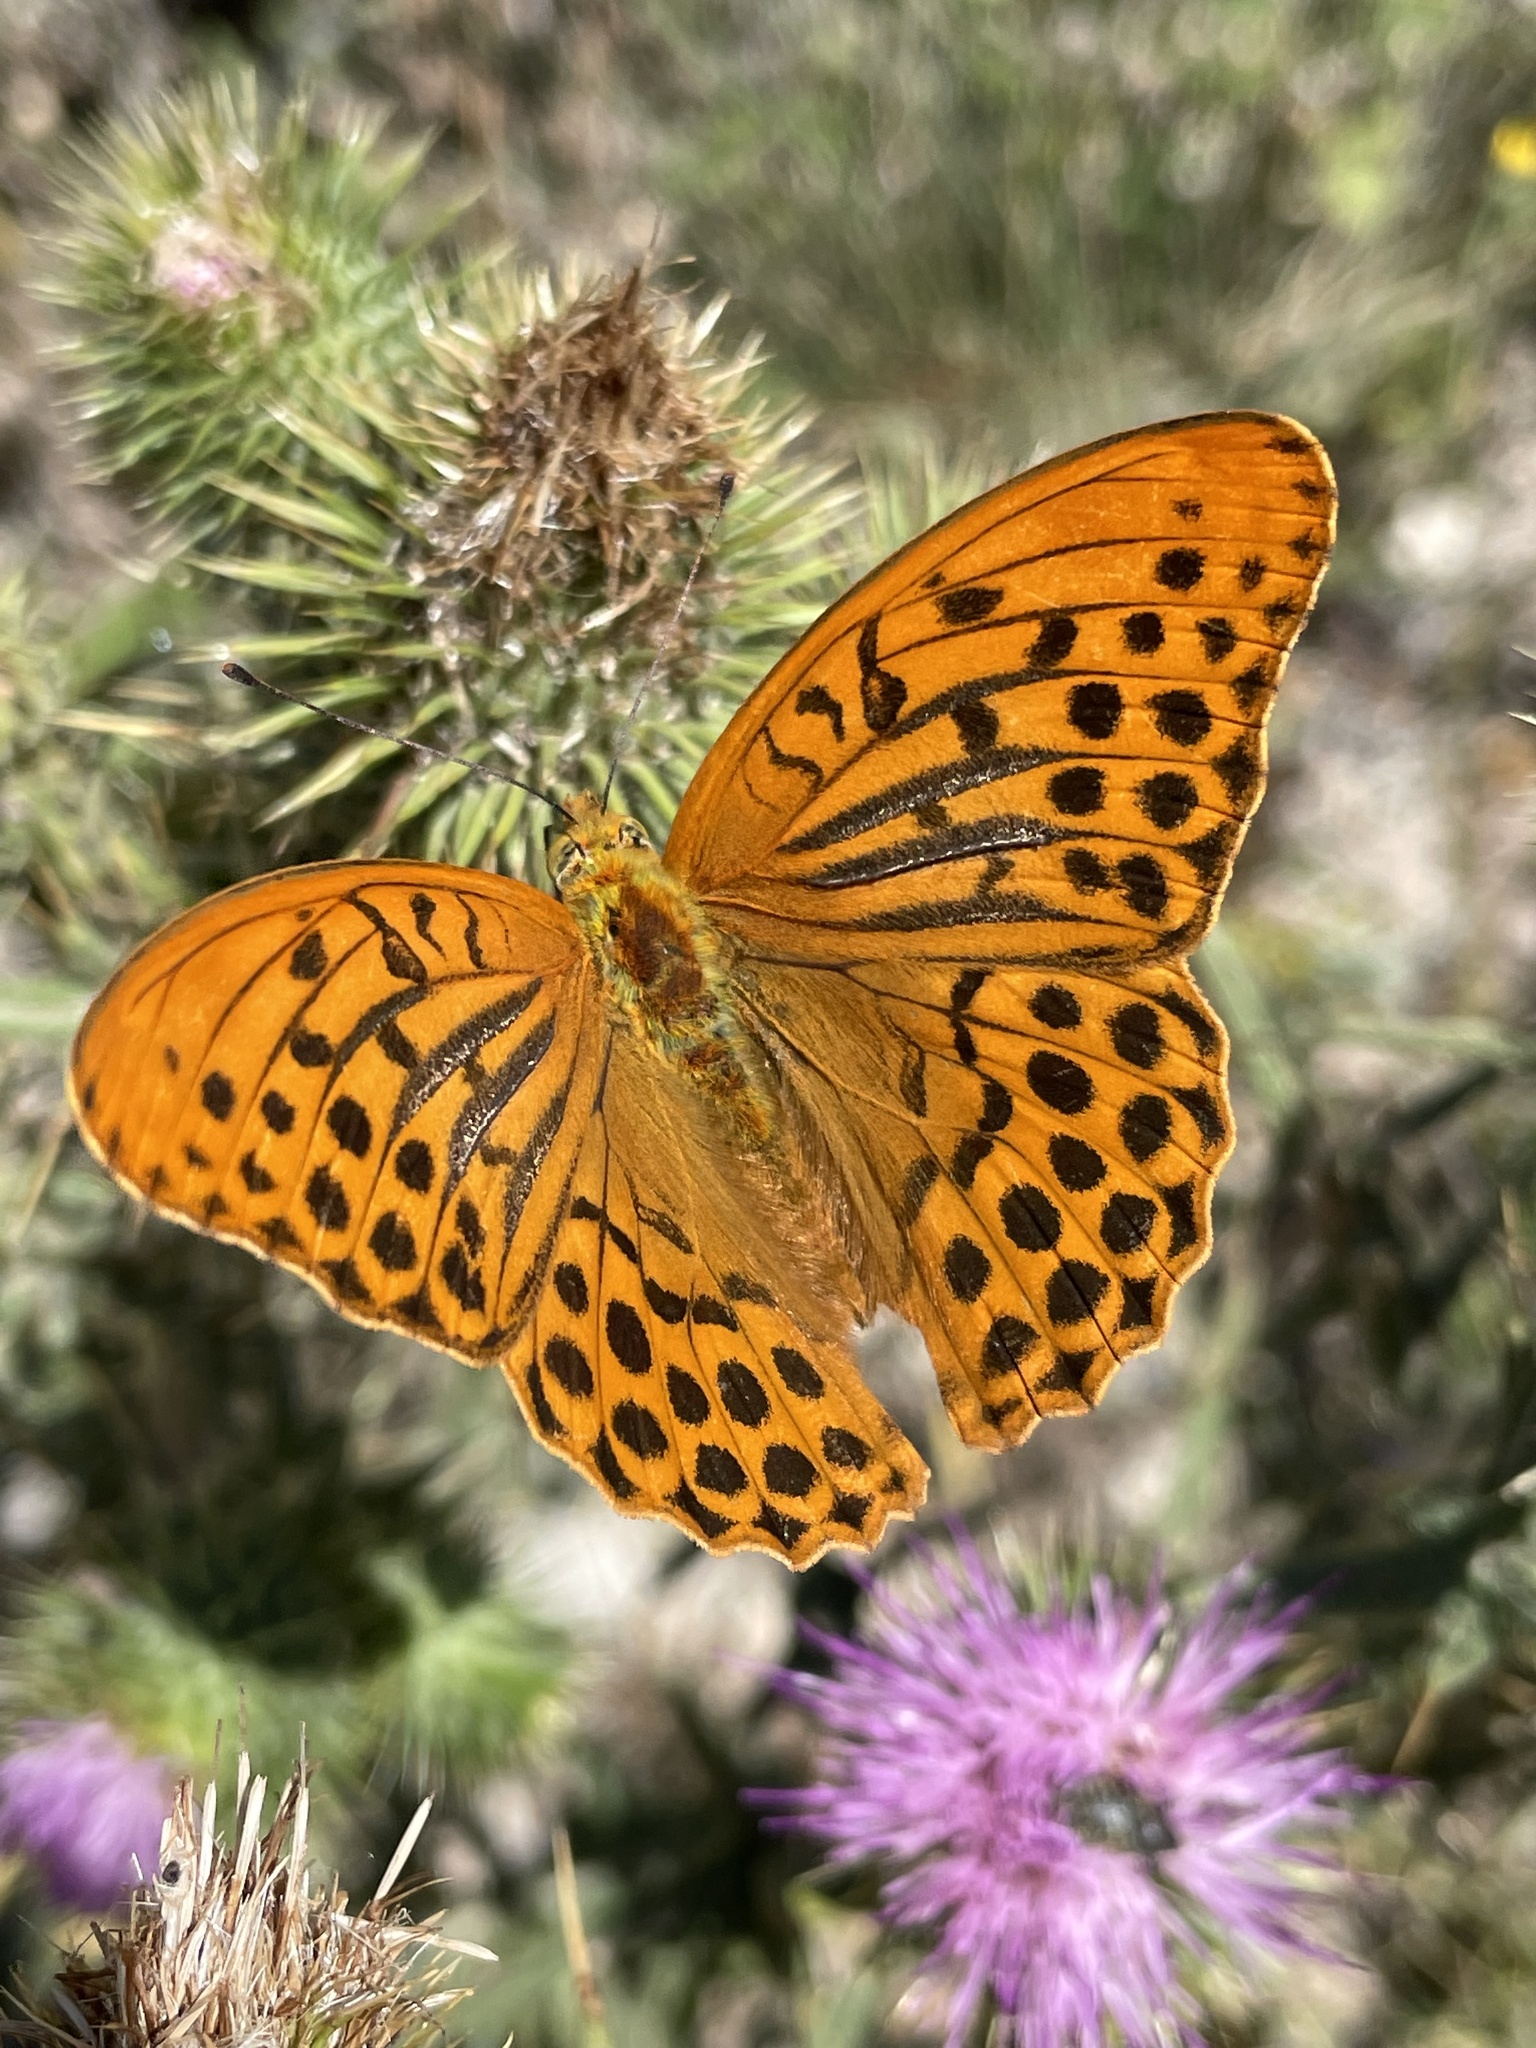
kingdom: Animalia
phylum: Arthropoda
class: Insecta
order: Lepidoptera
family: Nymphalidae
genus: Argynnis
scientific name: Argynnis paphia
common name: Silver-washed fritillary
